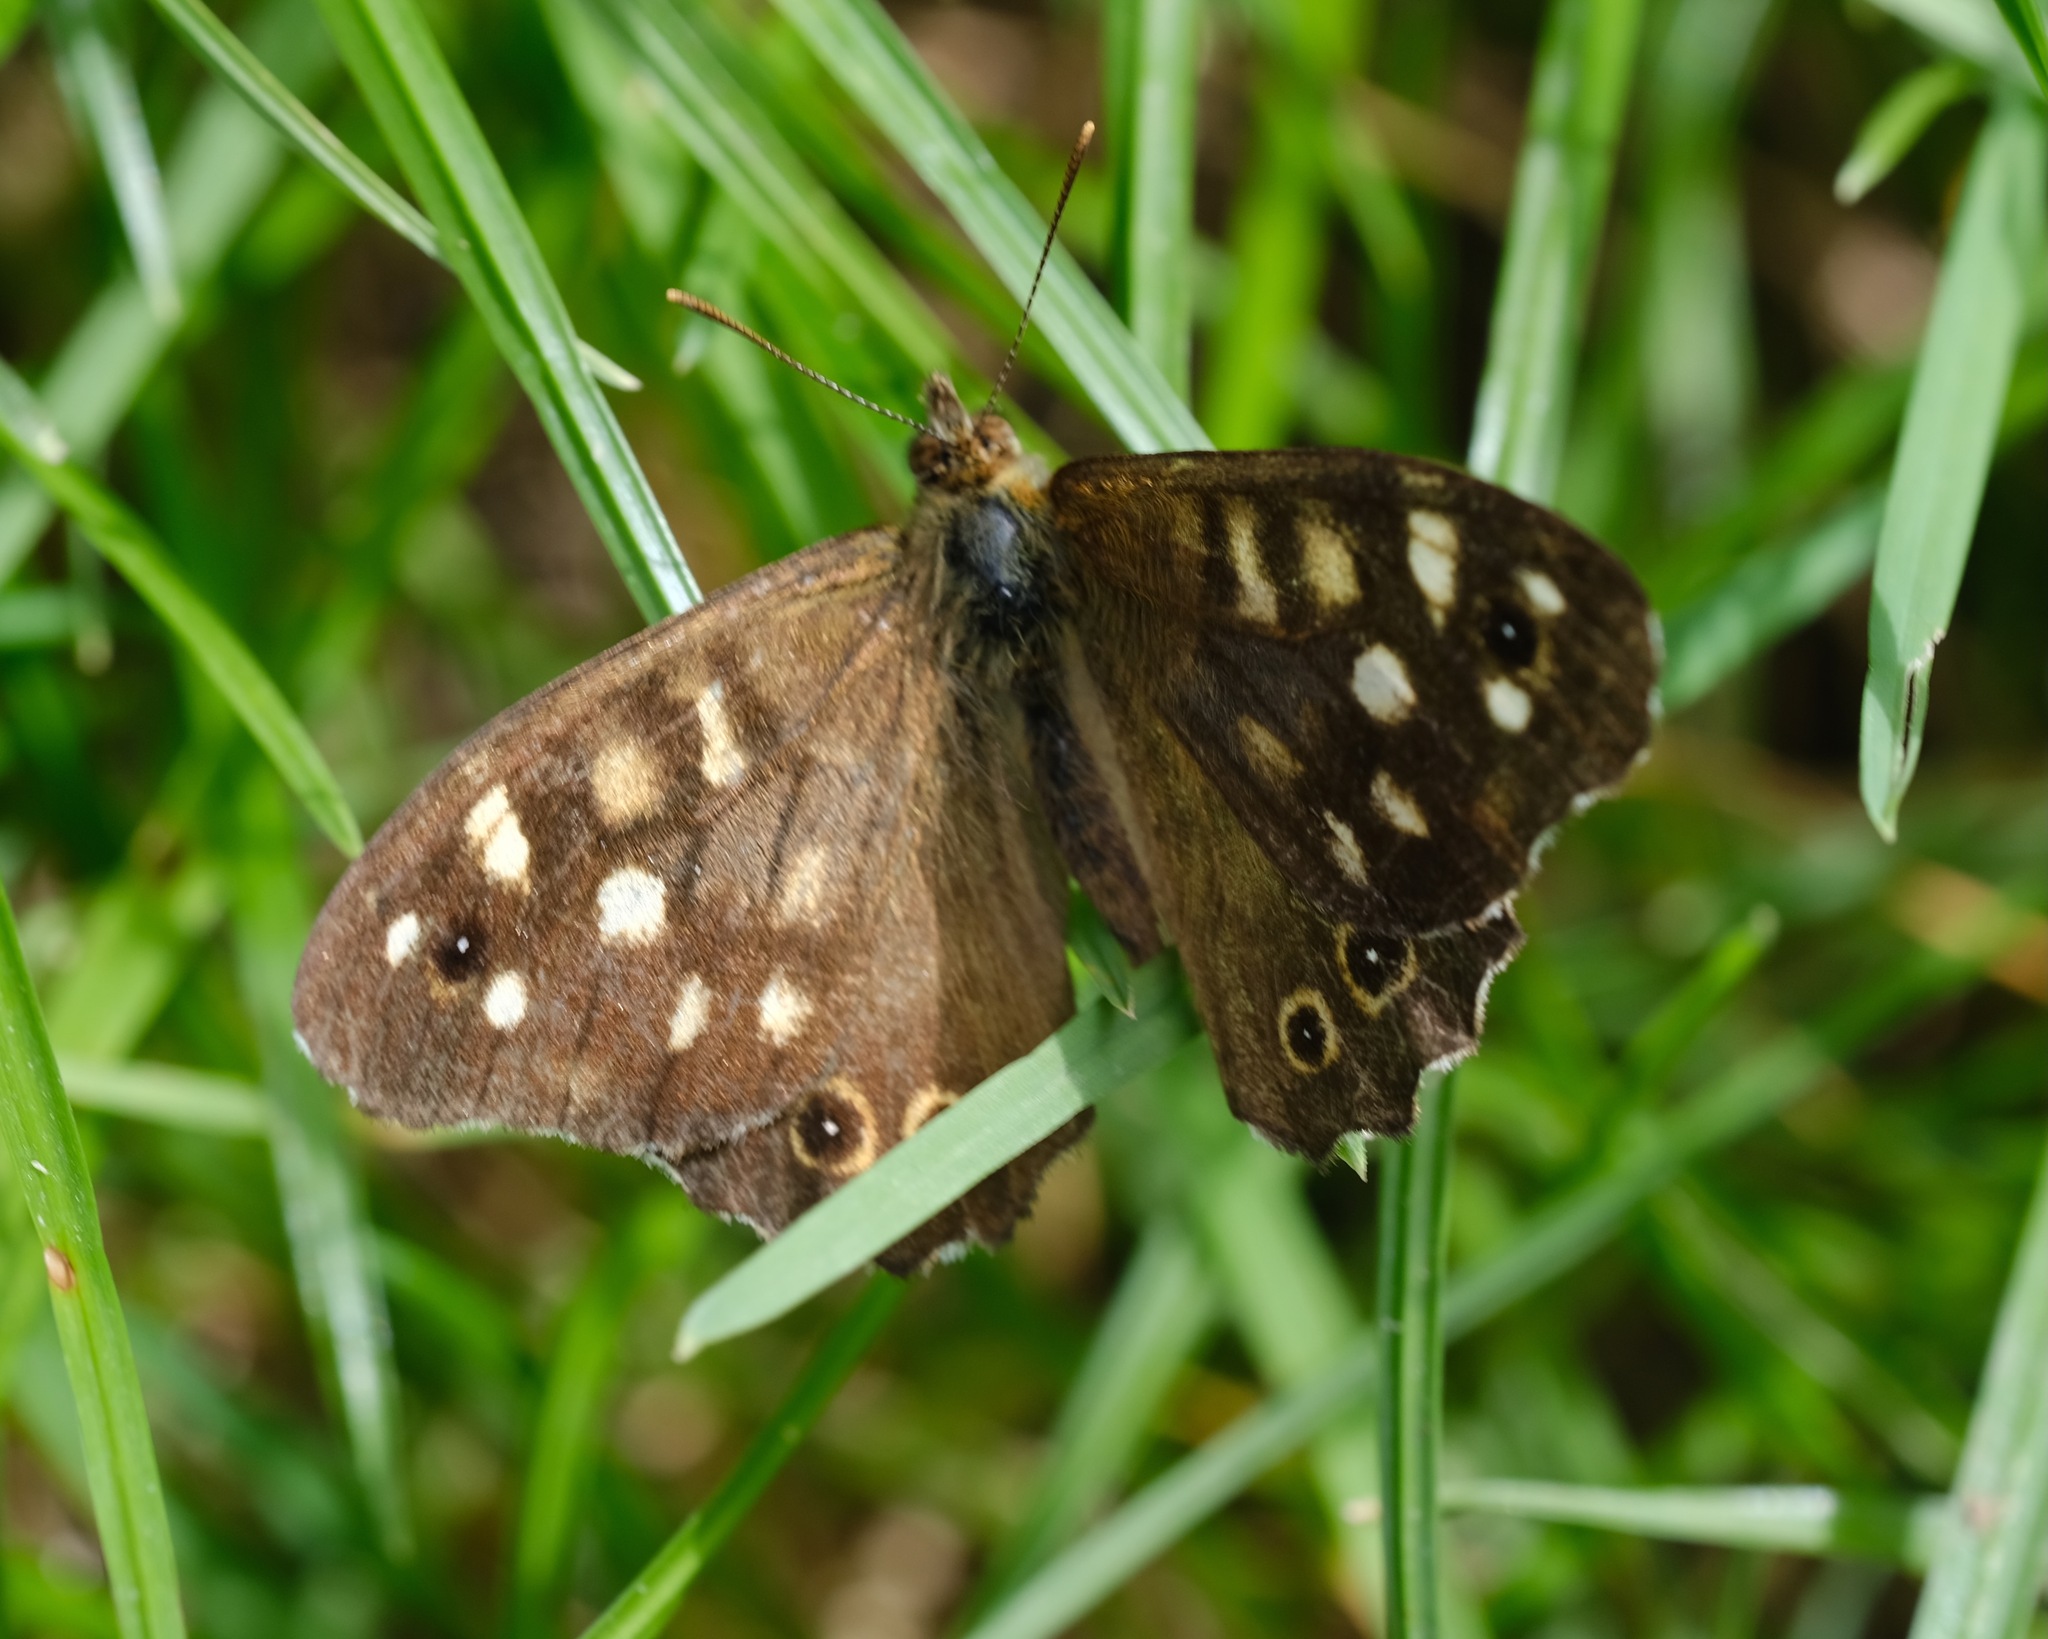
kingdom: Animalia
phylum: Arthropoda
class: Insecta
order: Lepidoptera
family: Nymphalidae
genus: Pararge
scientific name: Pararge aegeria
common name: Speckled wood
